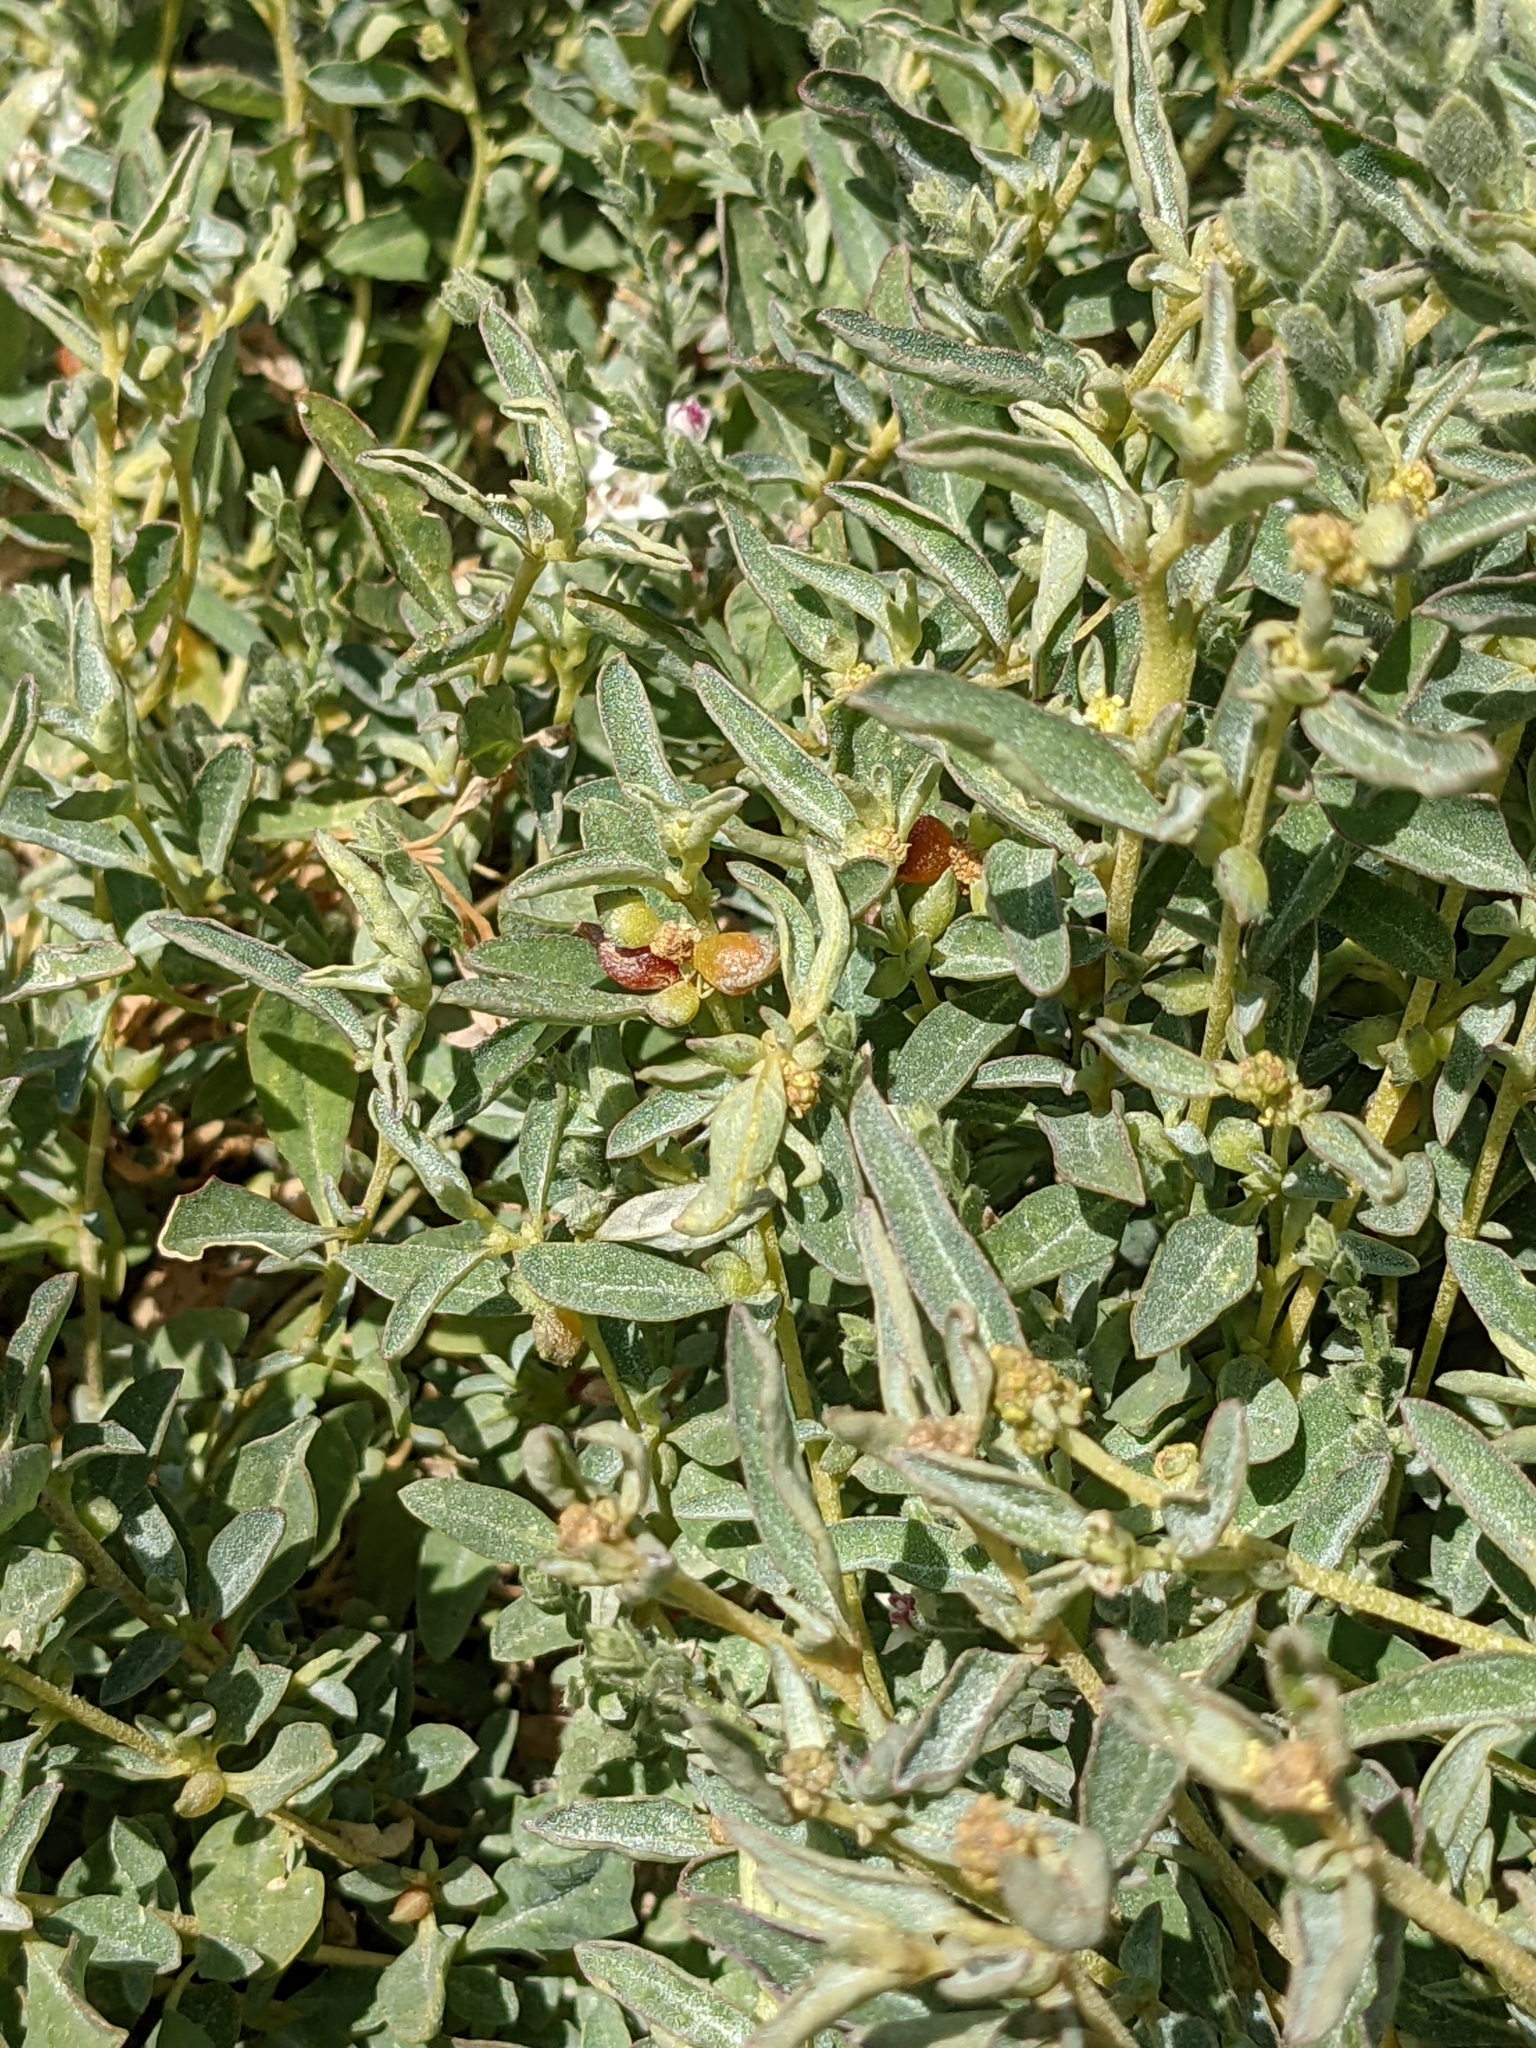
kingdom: Plantae
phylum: Tracheophyta
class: Magnoliopsida
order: Caryophyllales
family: Amaranthaceae
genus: Atriplex
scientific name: Atriplex semibaccata
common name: Australian saltbush
